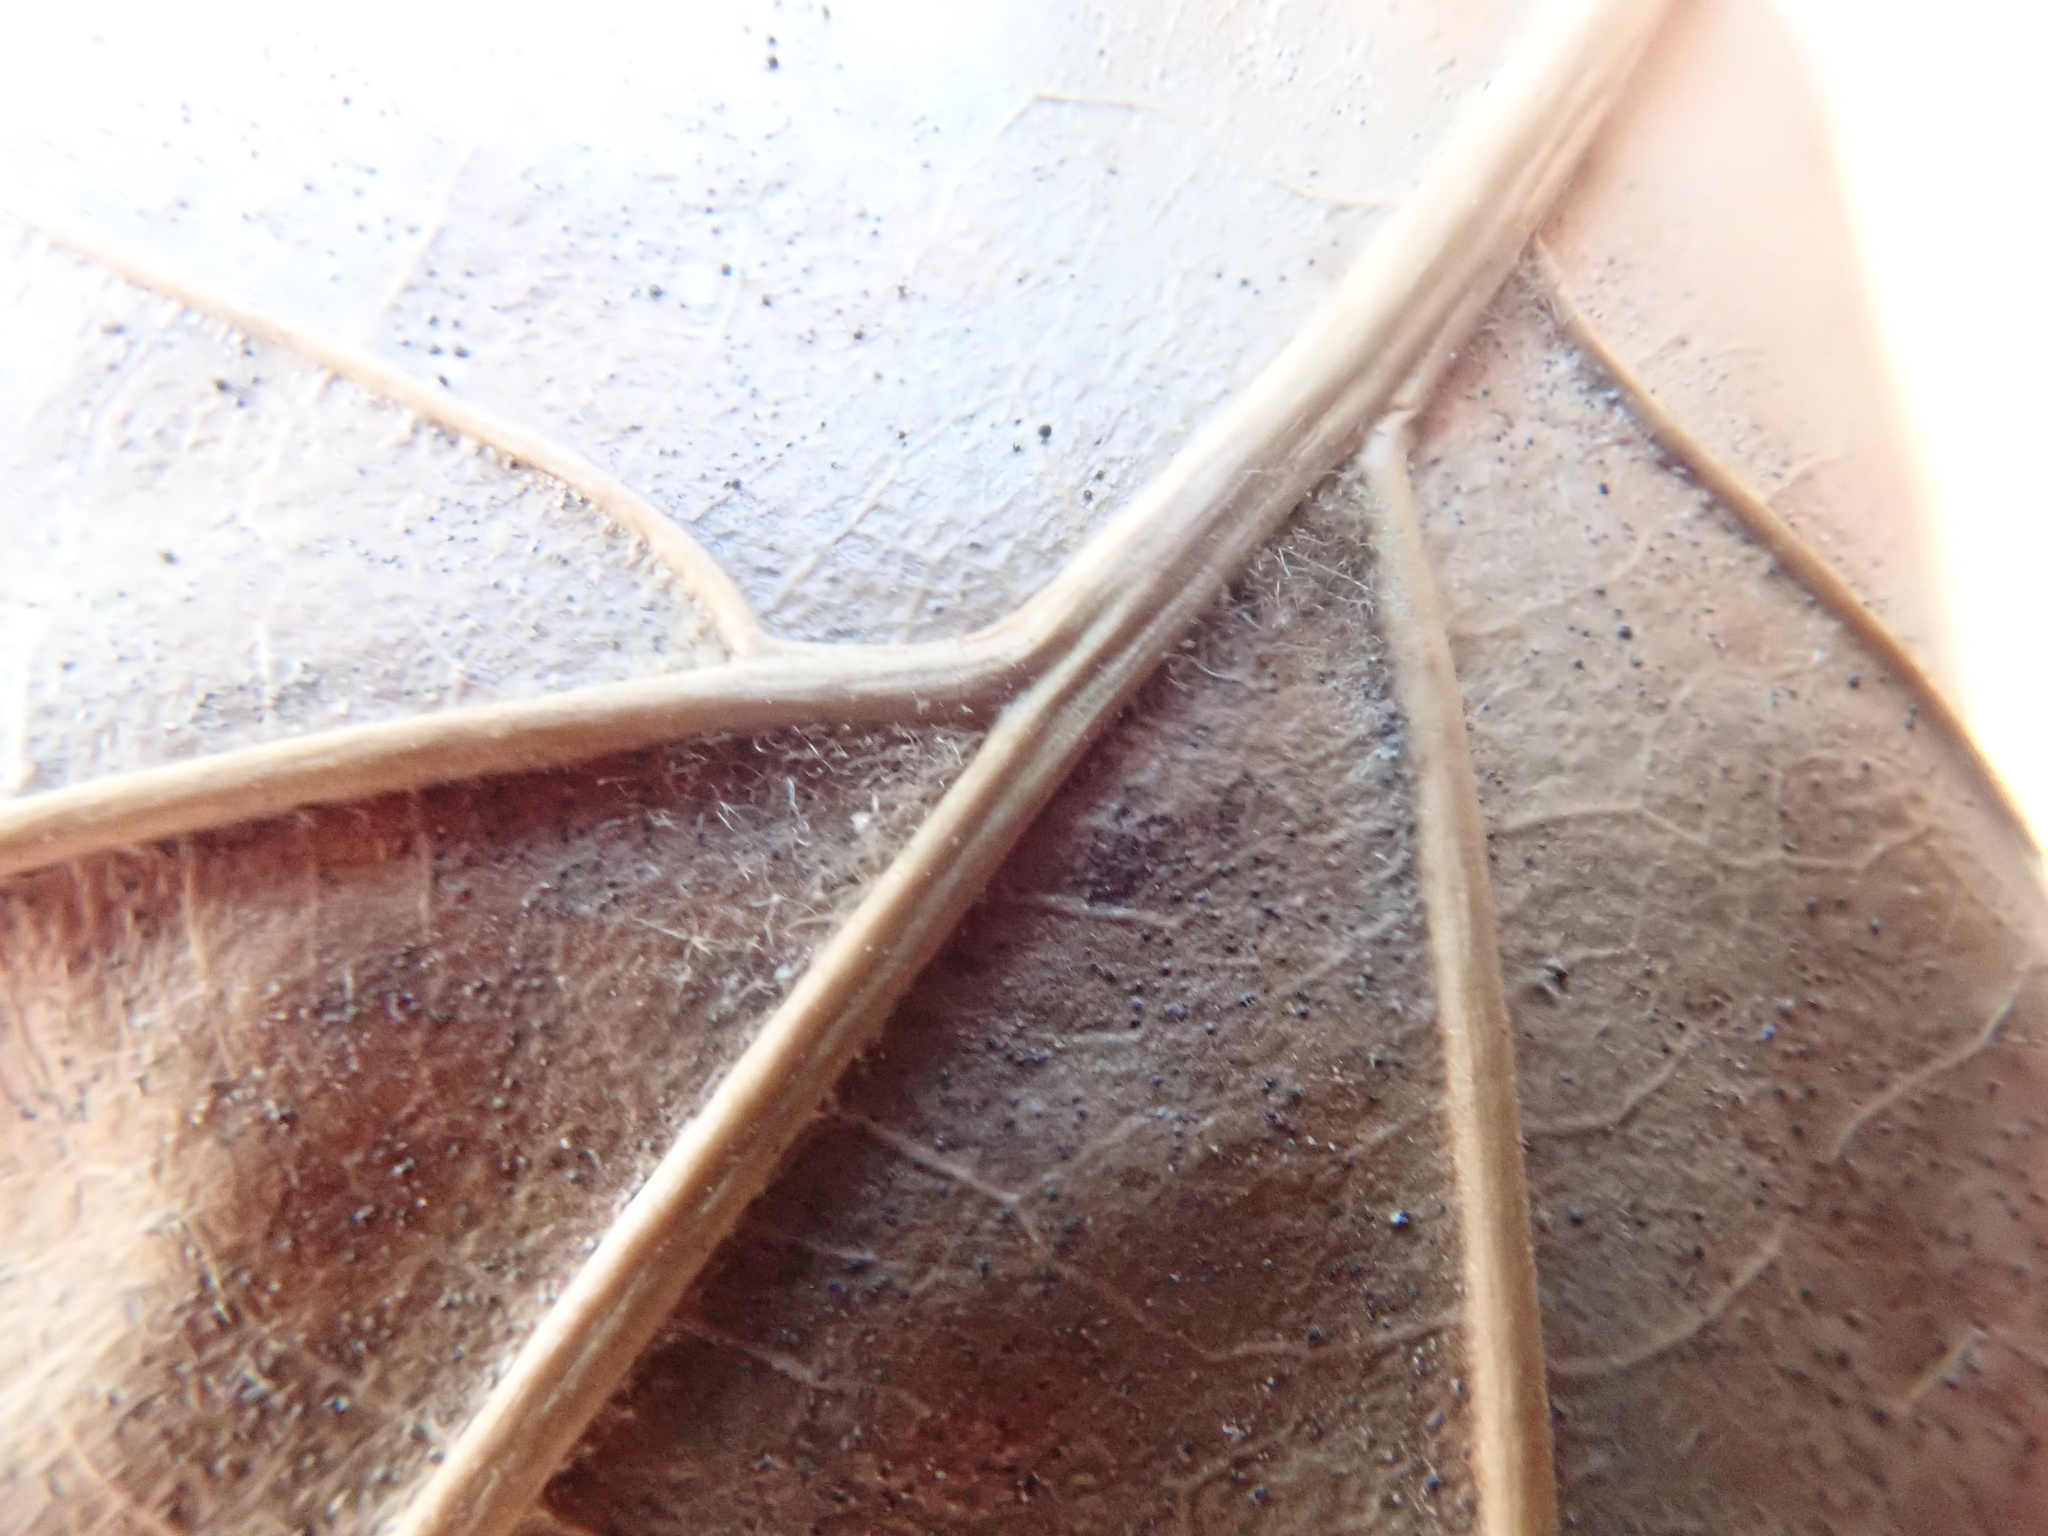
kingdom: Plantae
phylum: Tracheophyta
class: Magnoliopsida
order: Fagales
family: Fagaceae
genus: Quercus
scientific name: Quercus velutina
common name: Black oak
